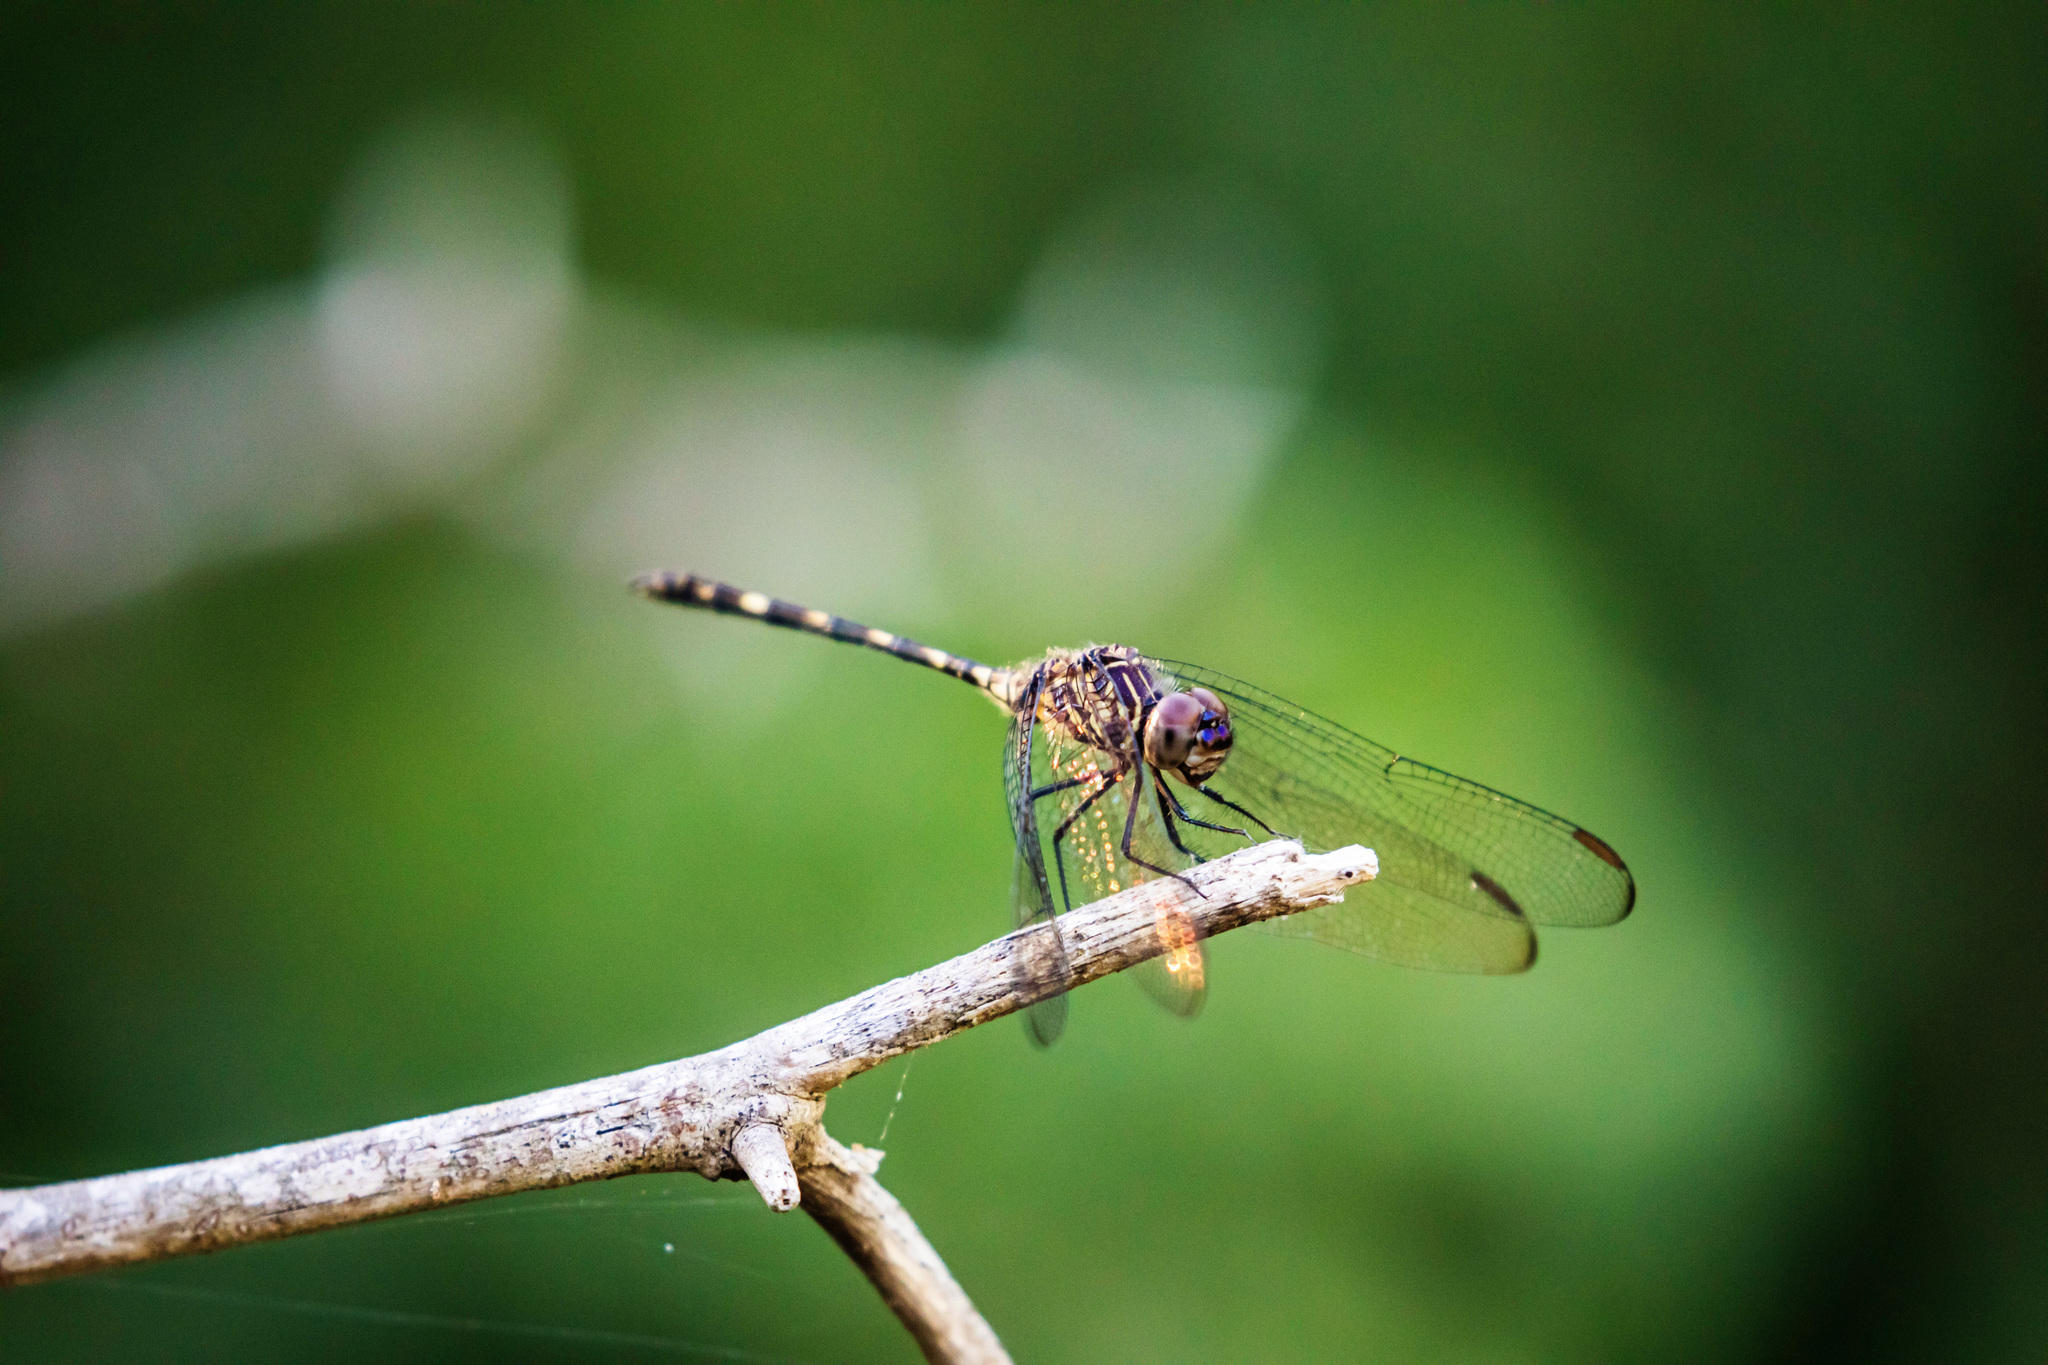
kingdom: Animalia
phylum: Arthropoda
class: Insecta
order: Odonata
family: Libellulidae
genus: Dythemis
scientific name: Dythemis nigrescens
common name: Black setwing
